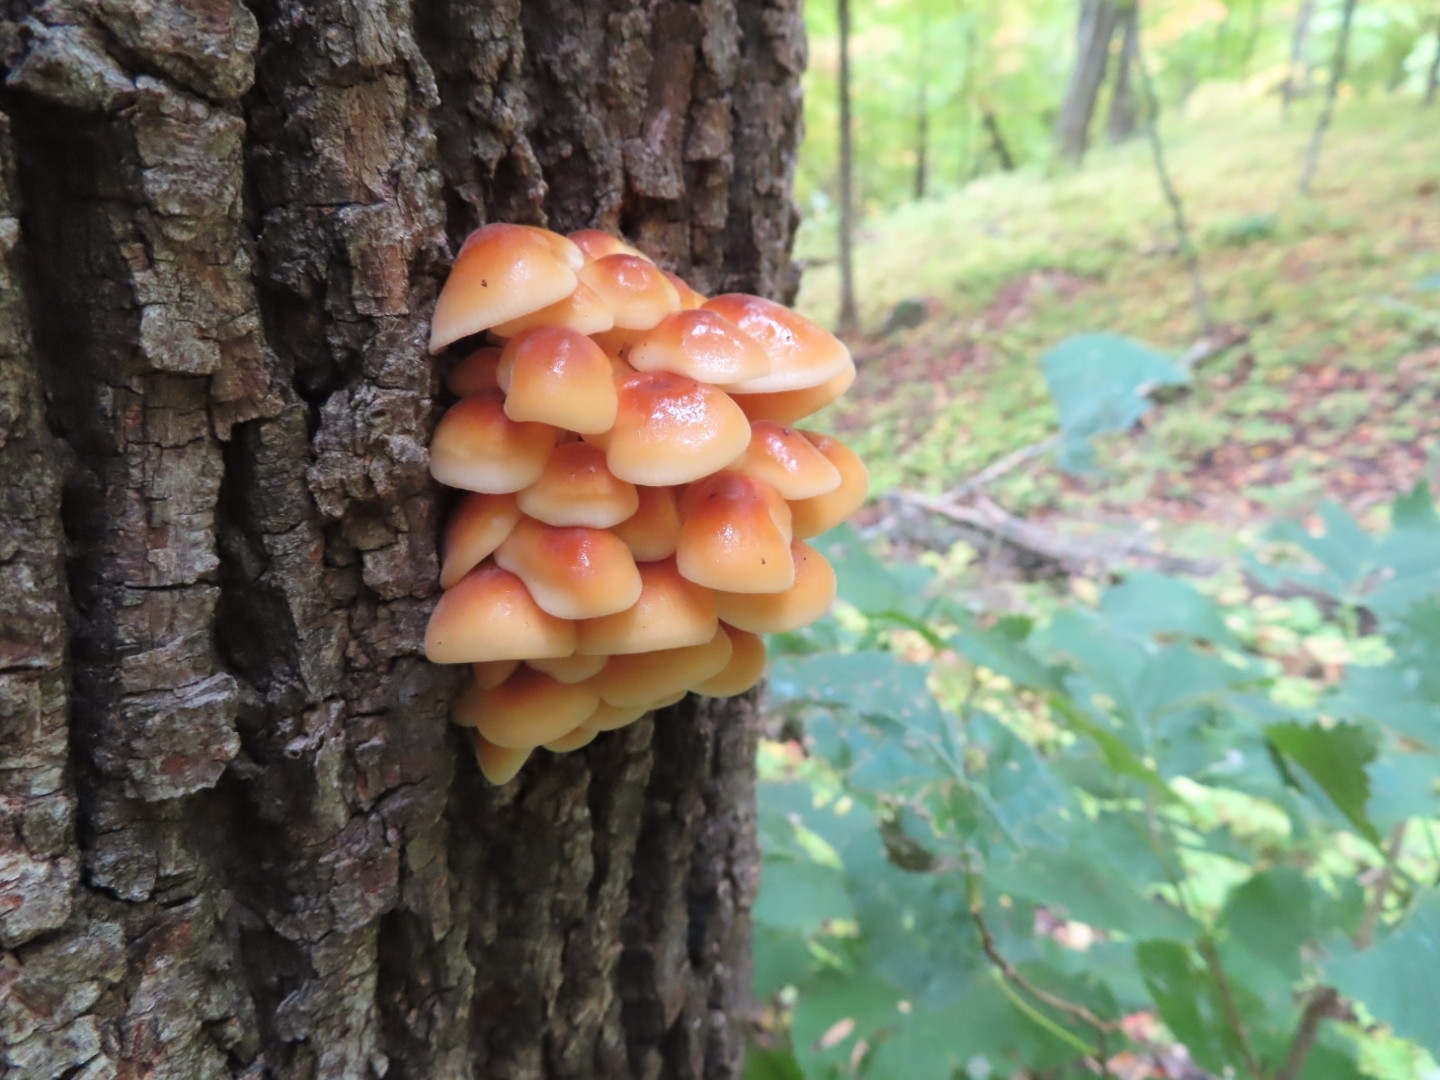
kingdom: Fungi
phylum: Basidiomycota
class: Agaricomycetes
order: Agaricales
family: Physalacriaceae
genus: Flammulina
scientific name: Flammulina velutipes
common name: Velvet shank
